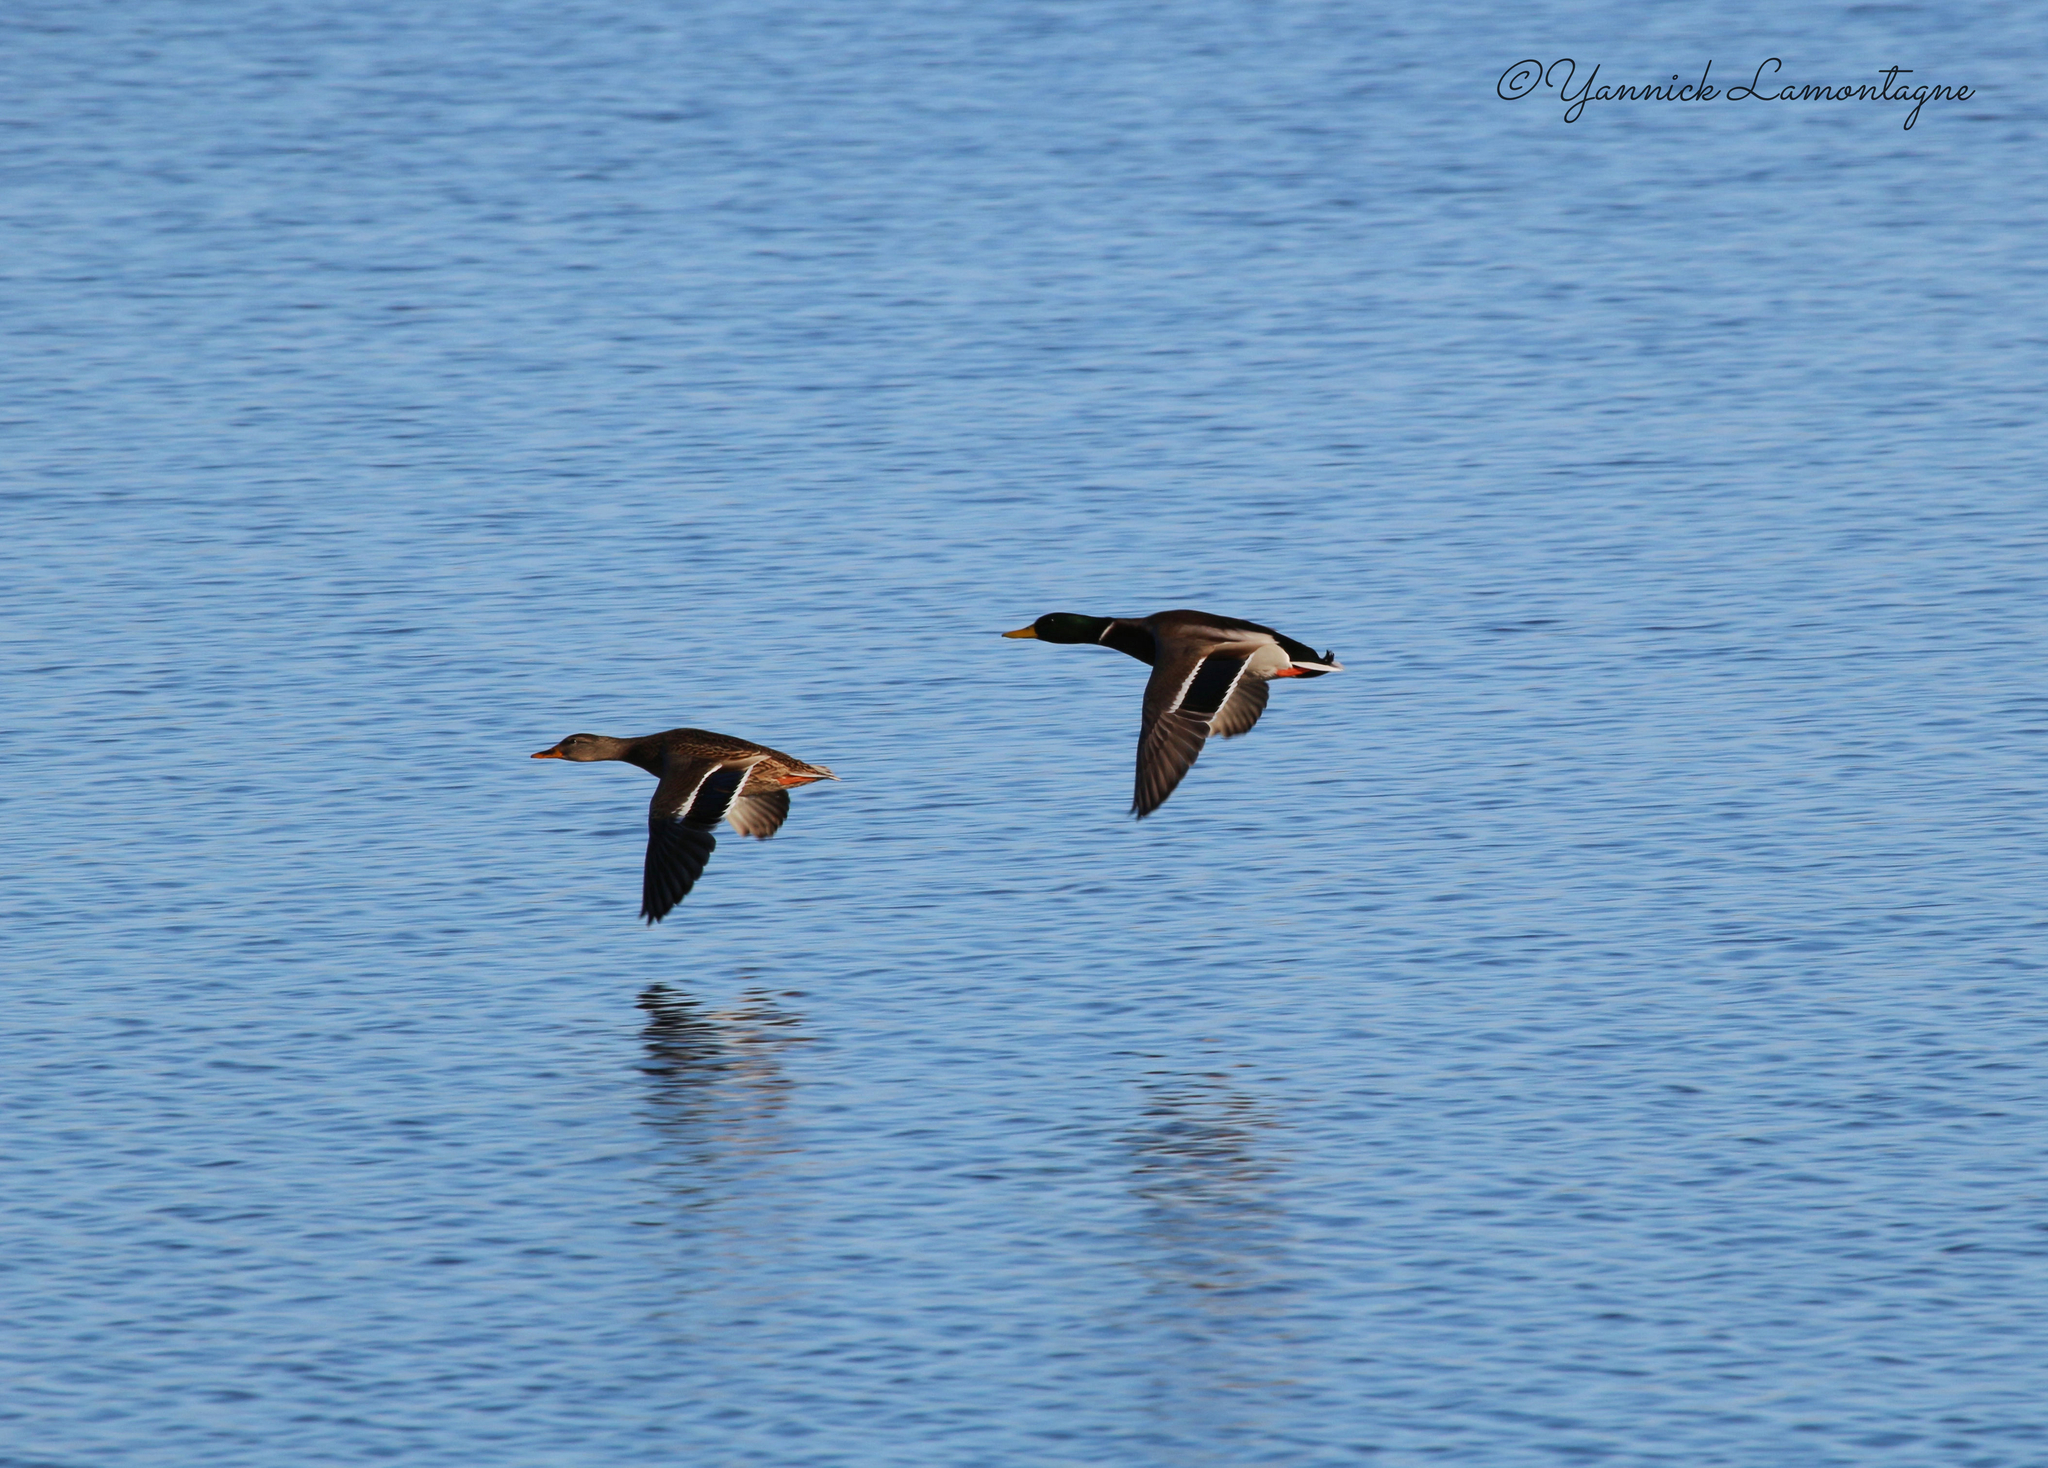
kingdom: Animalia
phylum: Chordata
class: Aves
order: Anseriformes
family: Anatidae
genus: Anas
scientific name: Anas platyrhynchos
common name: Mallard
